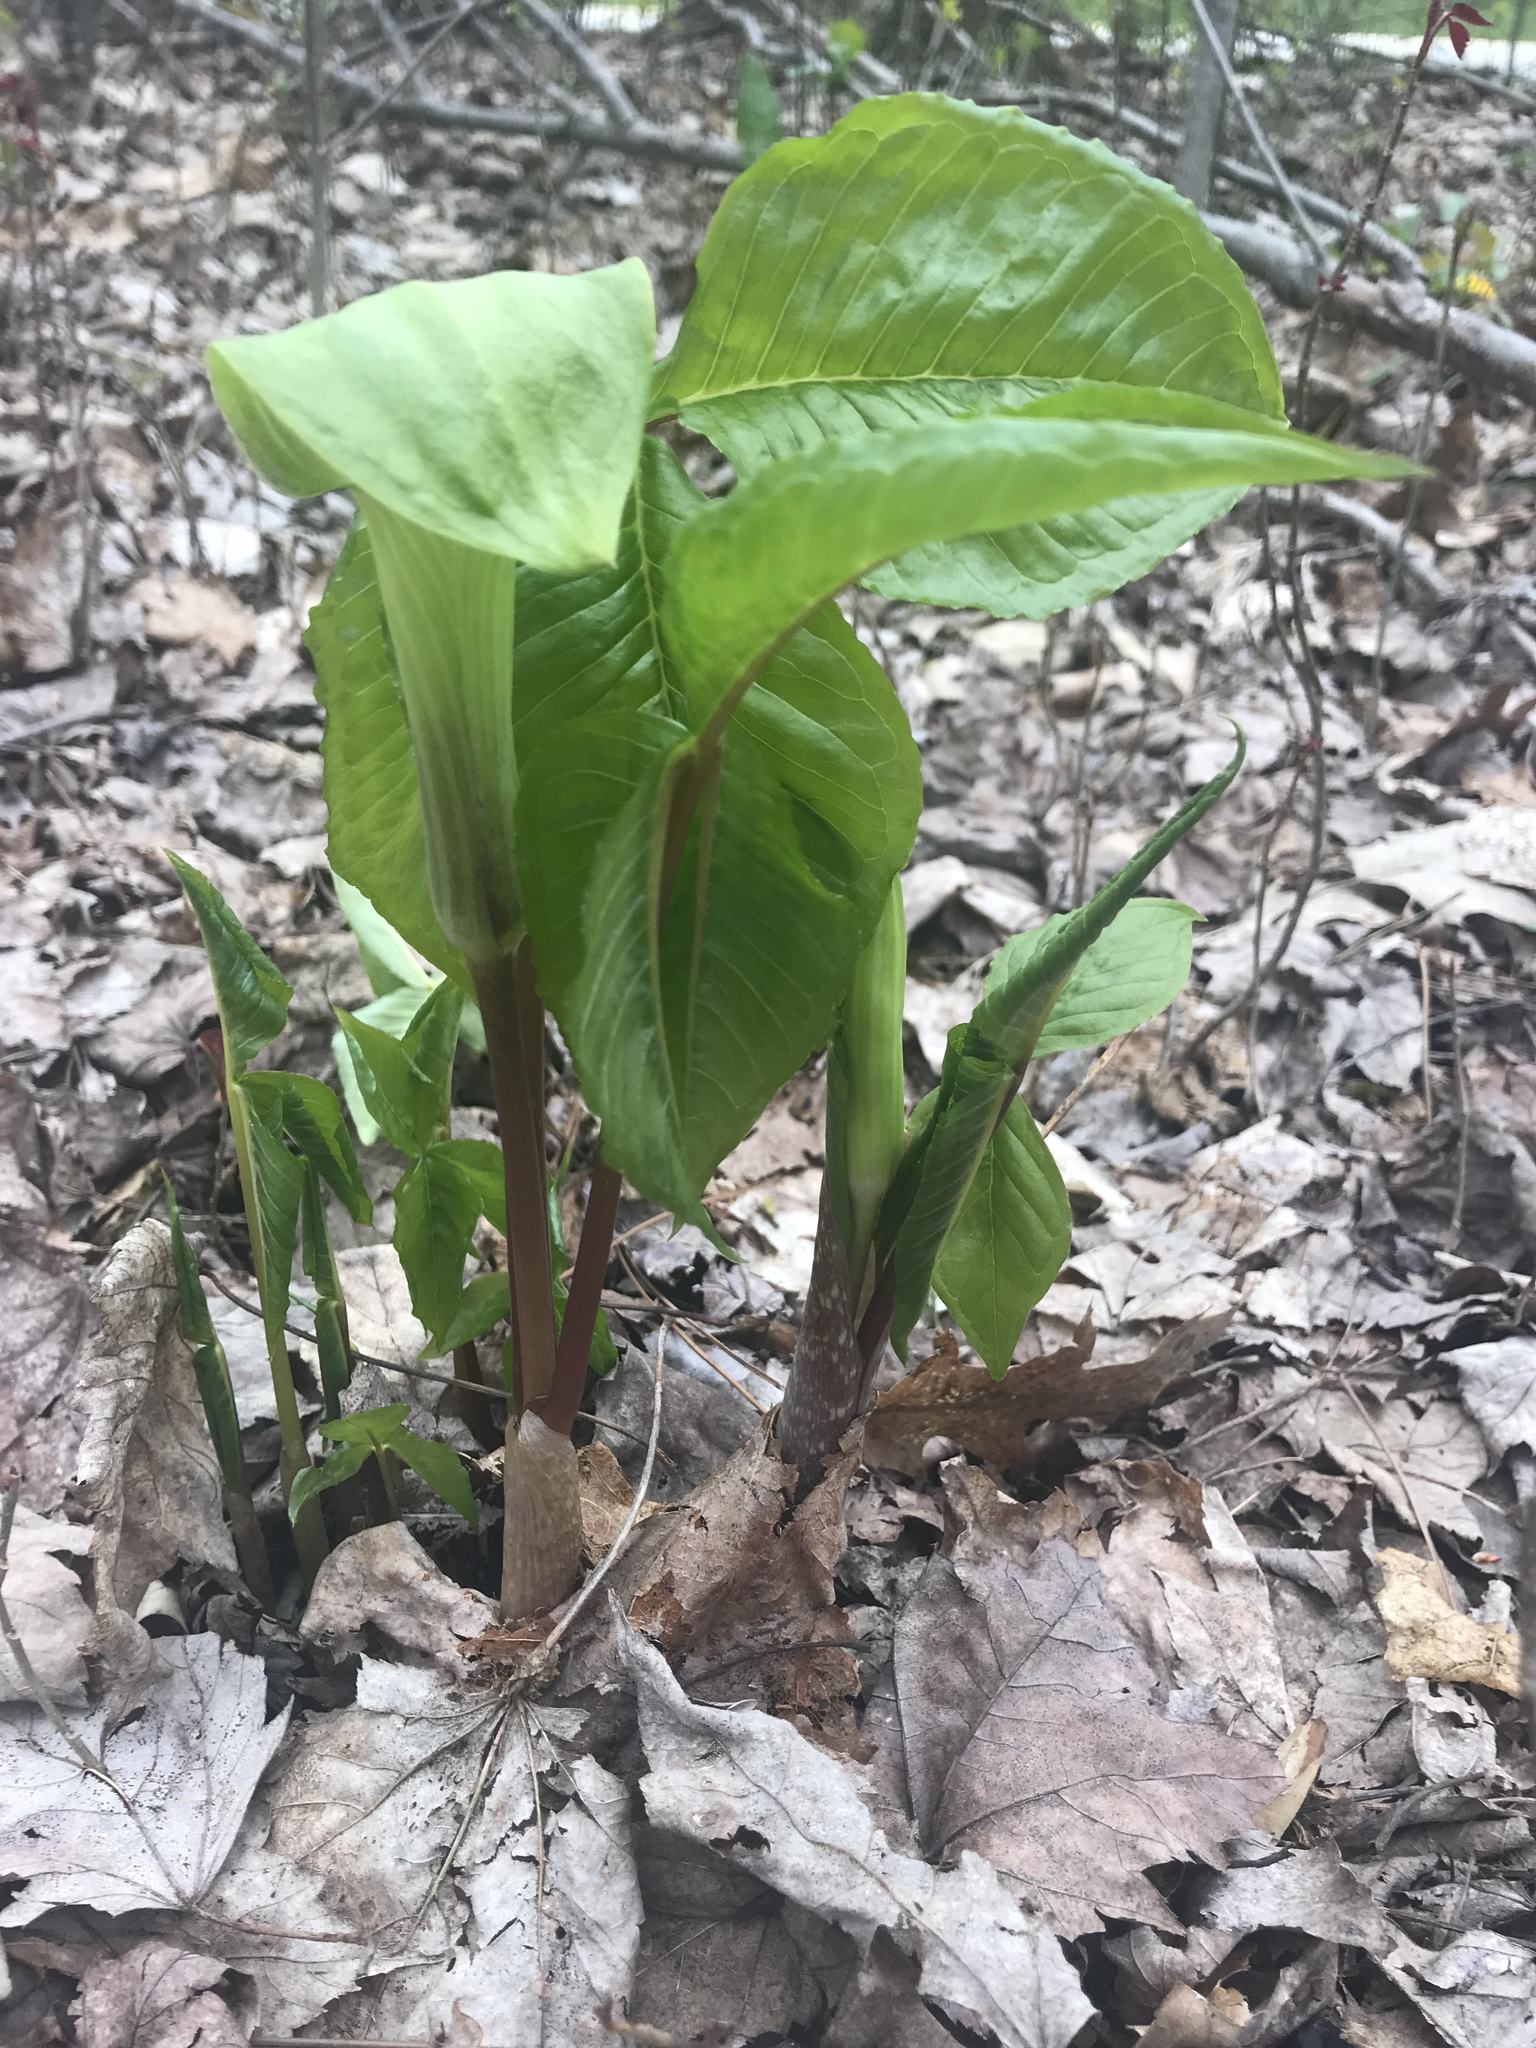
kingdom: Plantae
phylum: Tracheophyta
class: Liliopsida
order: Alismatales
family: Araceae
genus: Arisaema
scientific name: Arisaema triphyllum
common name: Jack-in-the-pulpit
